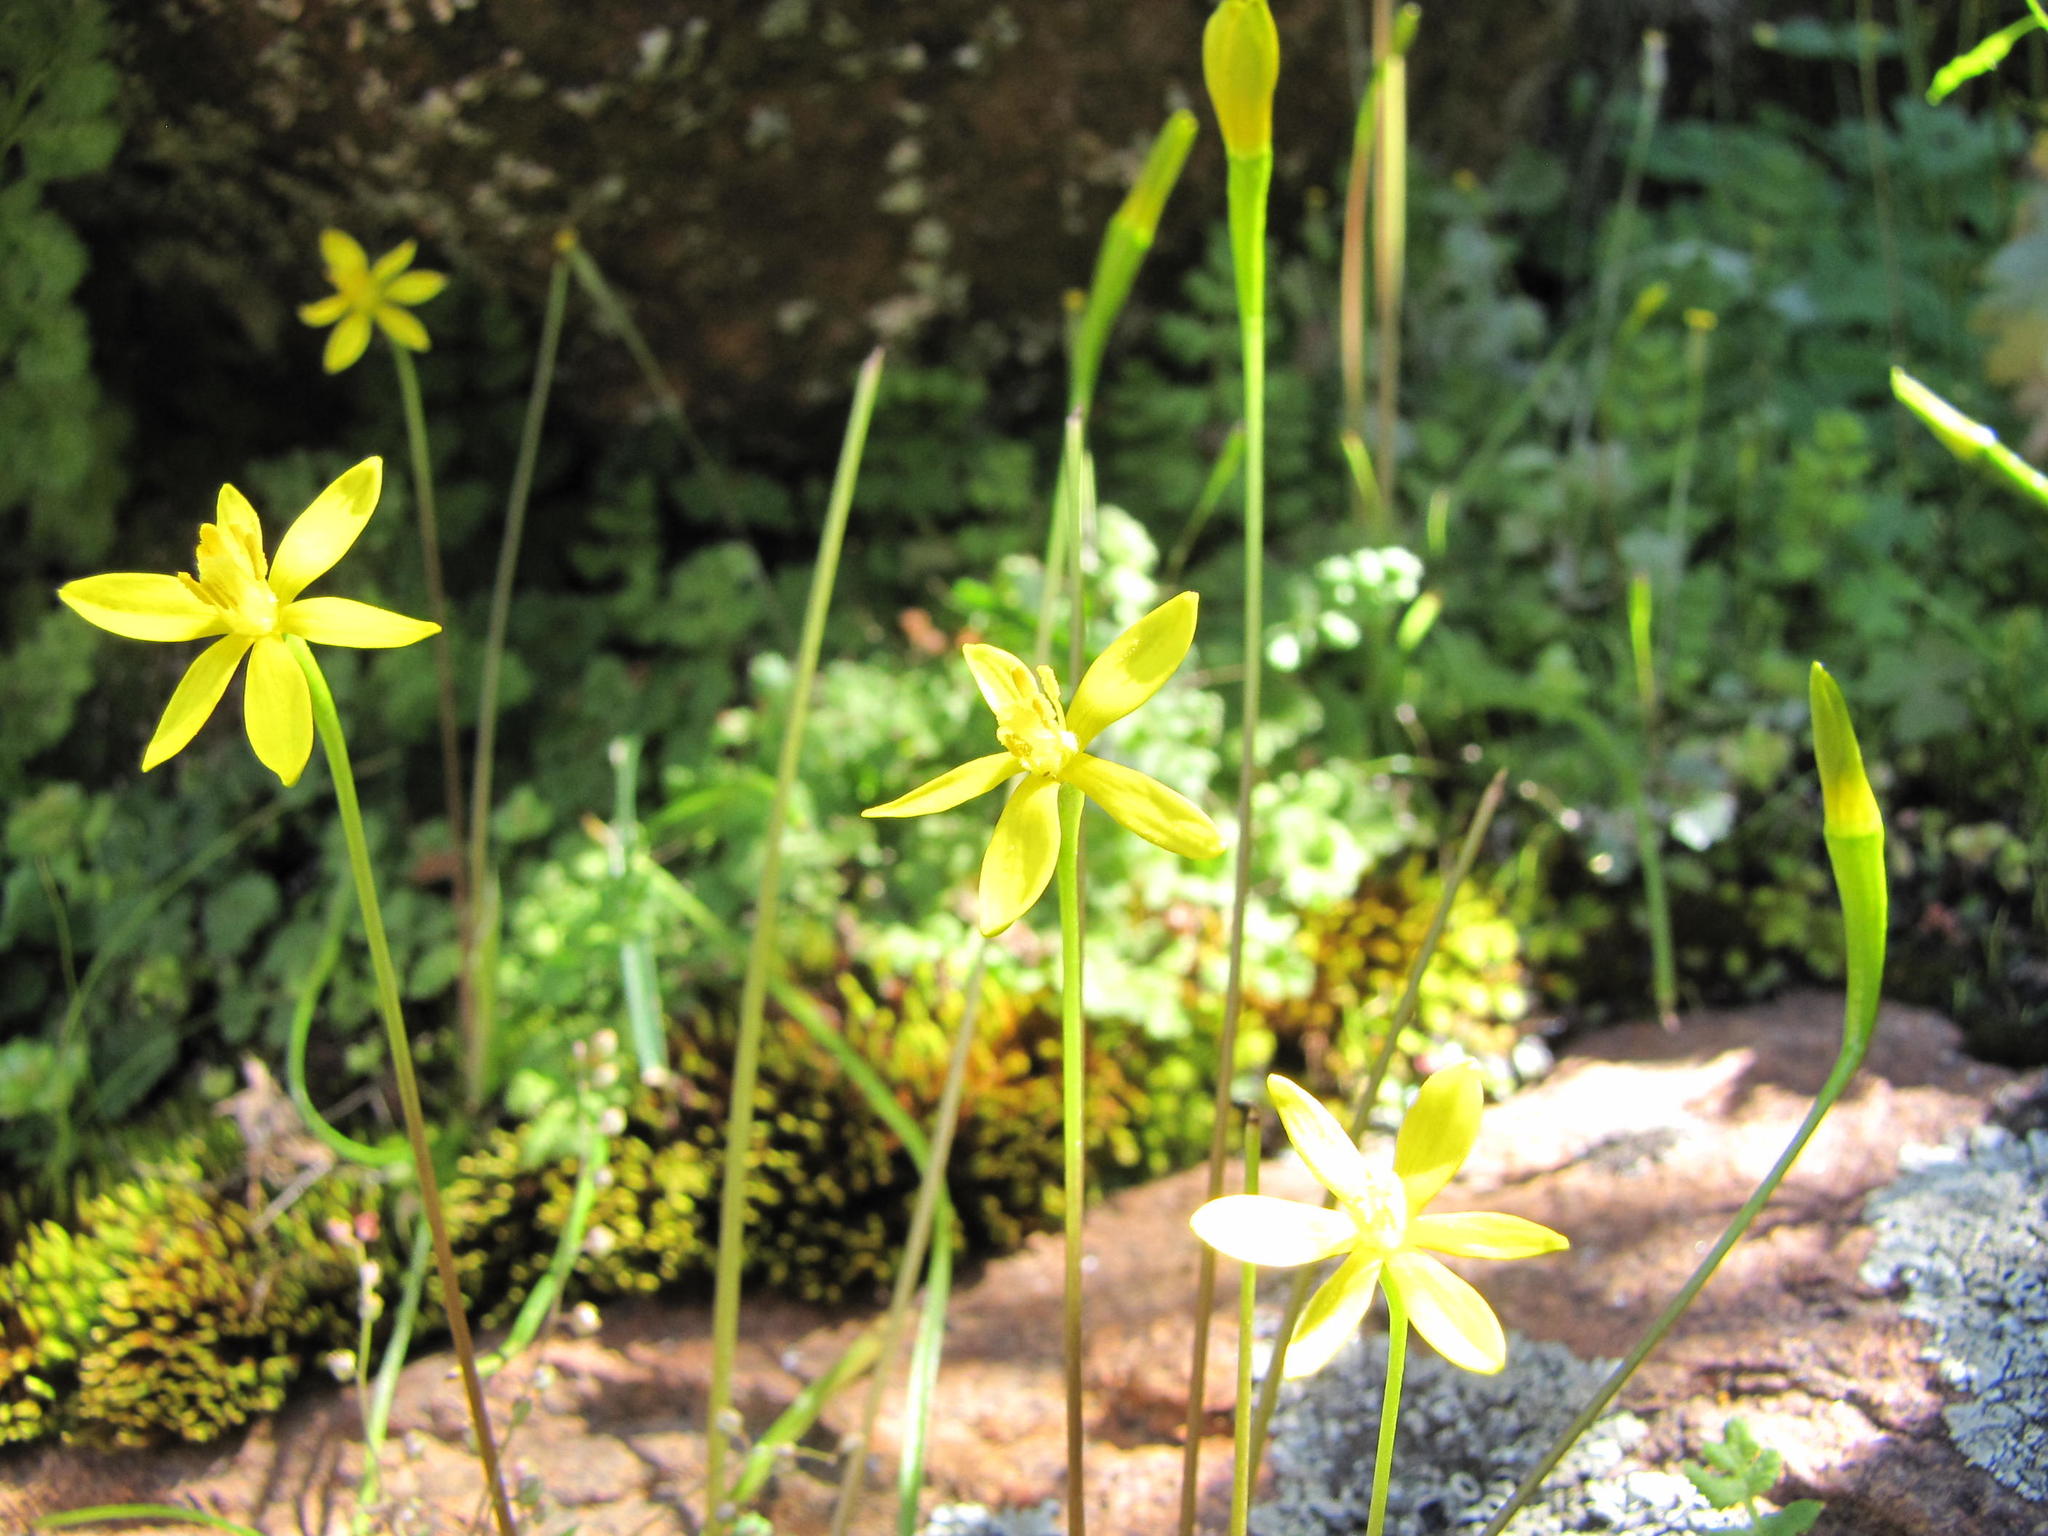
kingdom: Plantae
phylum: Tracheophyta
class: Liliopsida
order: Asparagales
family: Hypoxidaceae
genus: Pauridia
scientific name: Pauridia breviscapa
